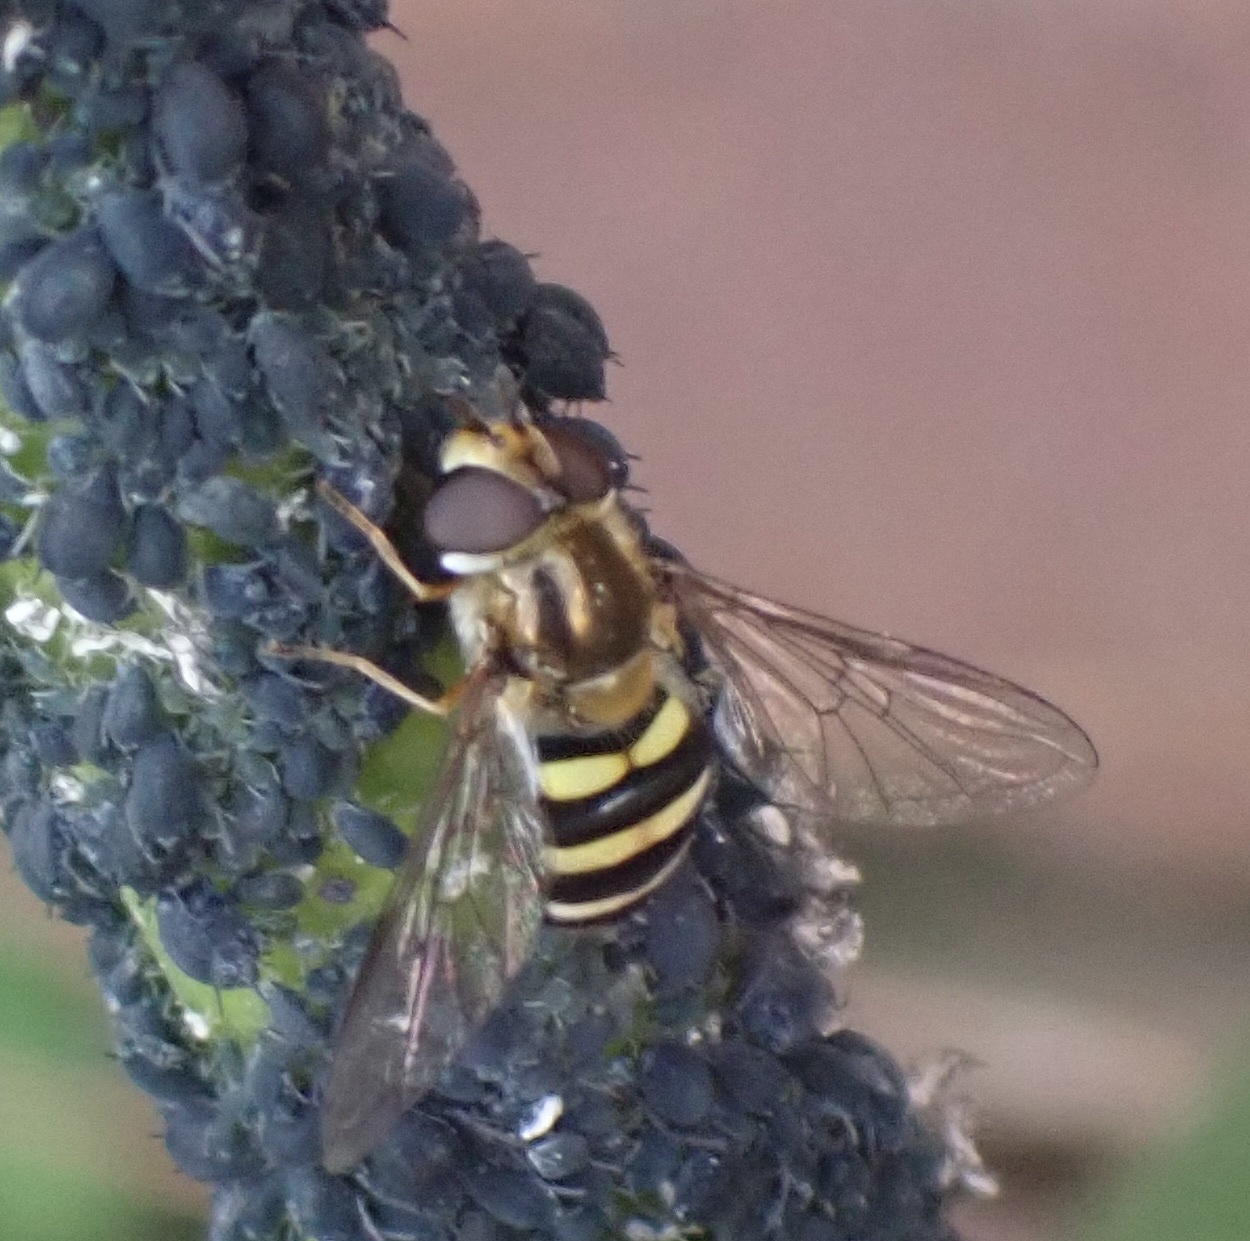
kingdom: Animalia
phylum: Arthropoda
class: Insecta
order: Diptera
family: Syrphidae
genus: Eupeodes
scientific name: Eupeodes
